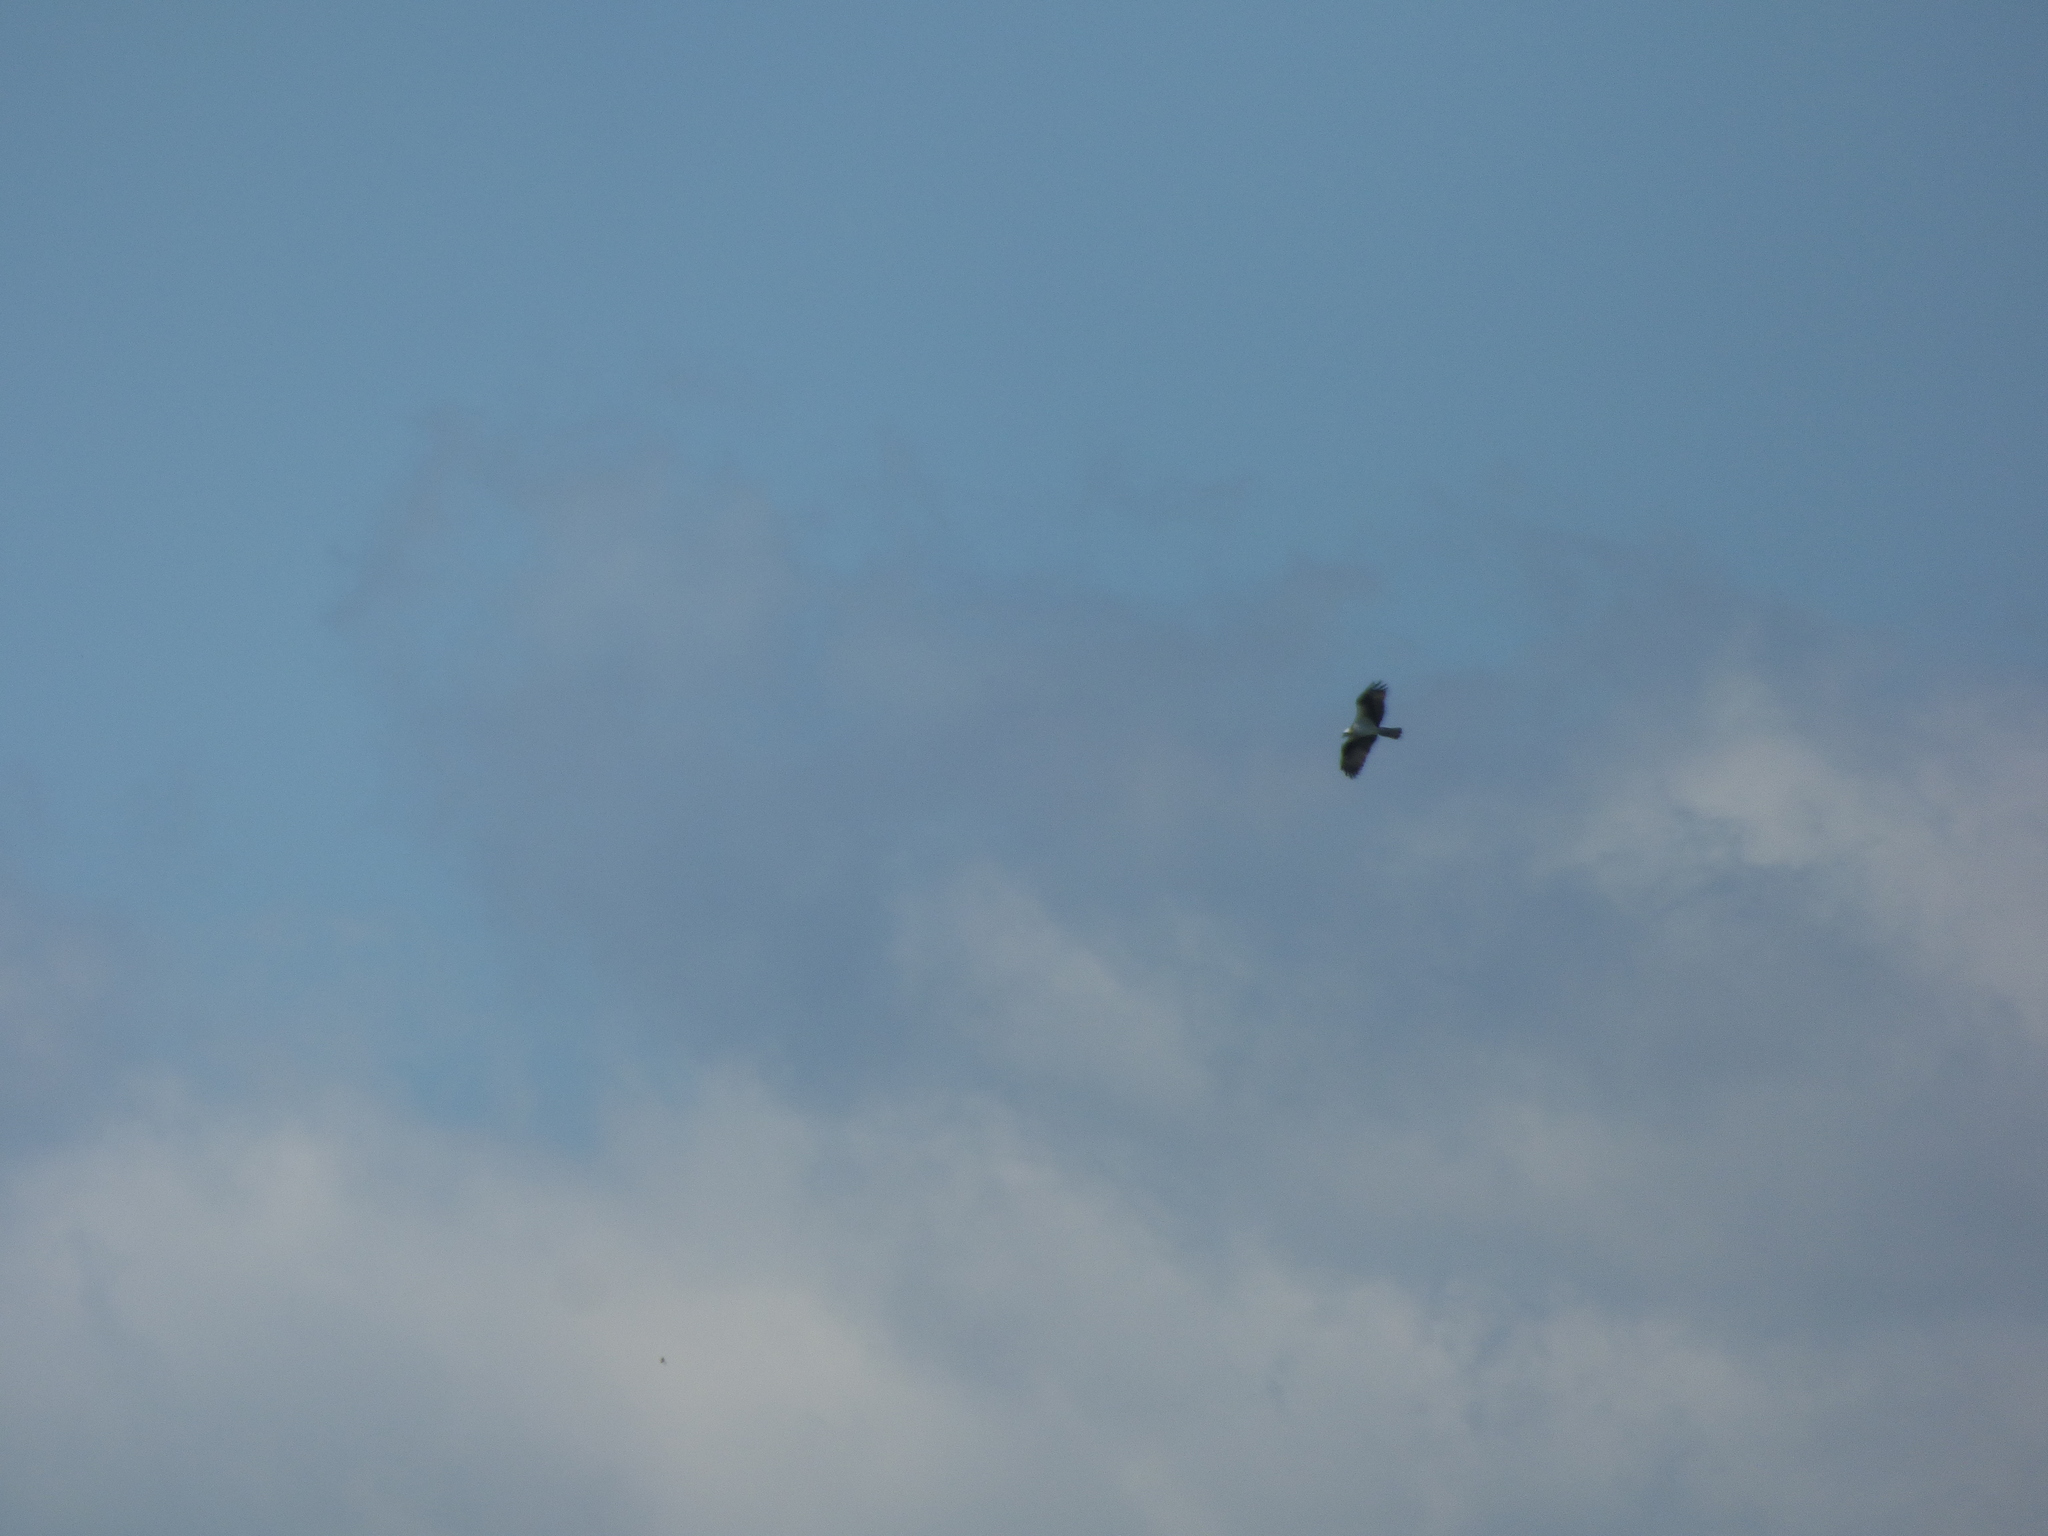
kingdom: Animalia
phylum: Chordata
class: Aves
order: Accipitriformes
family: Pandionidae
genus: Pandion
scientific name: Pandion haliaetus
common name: Osprey
